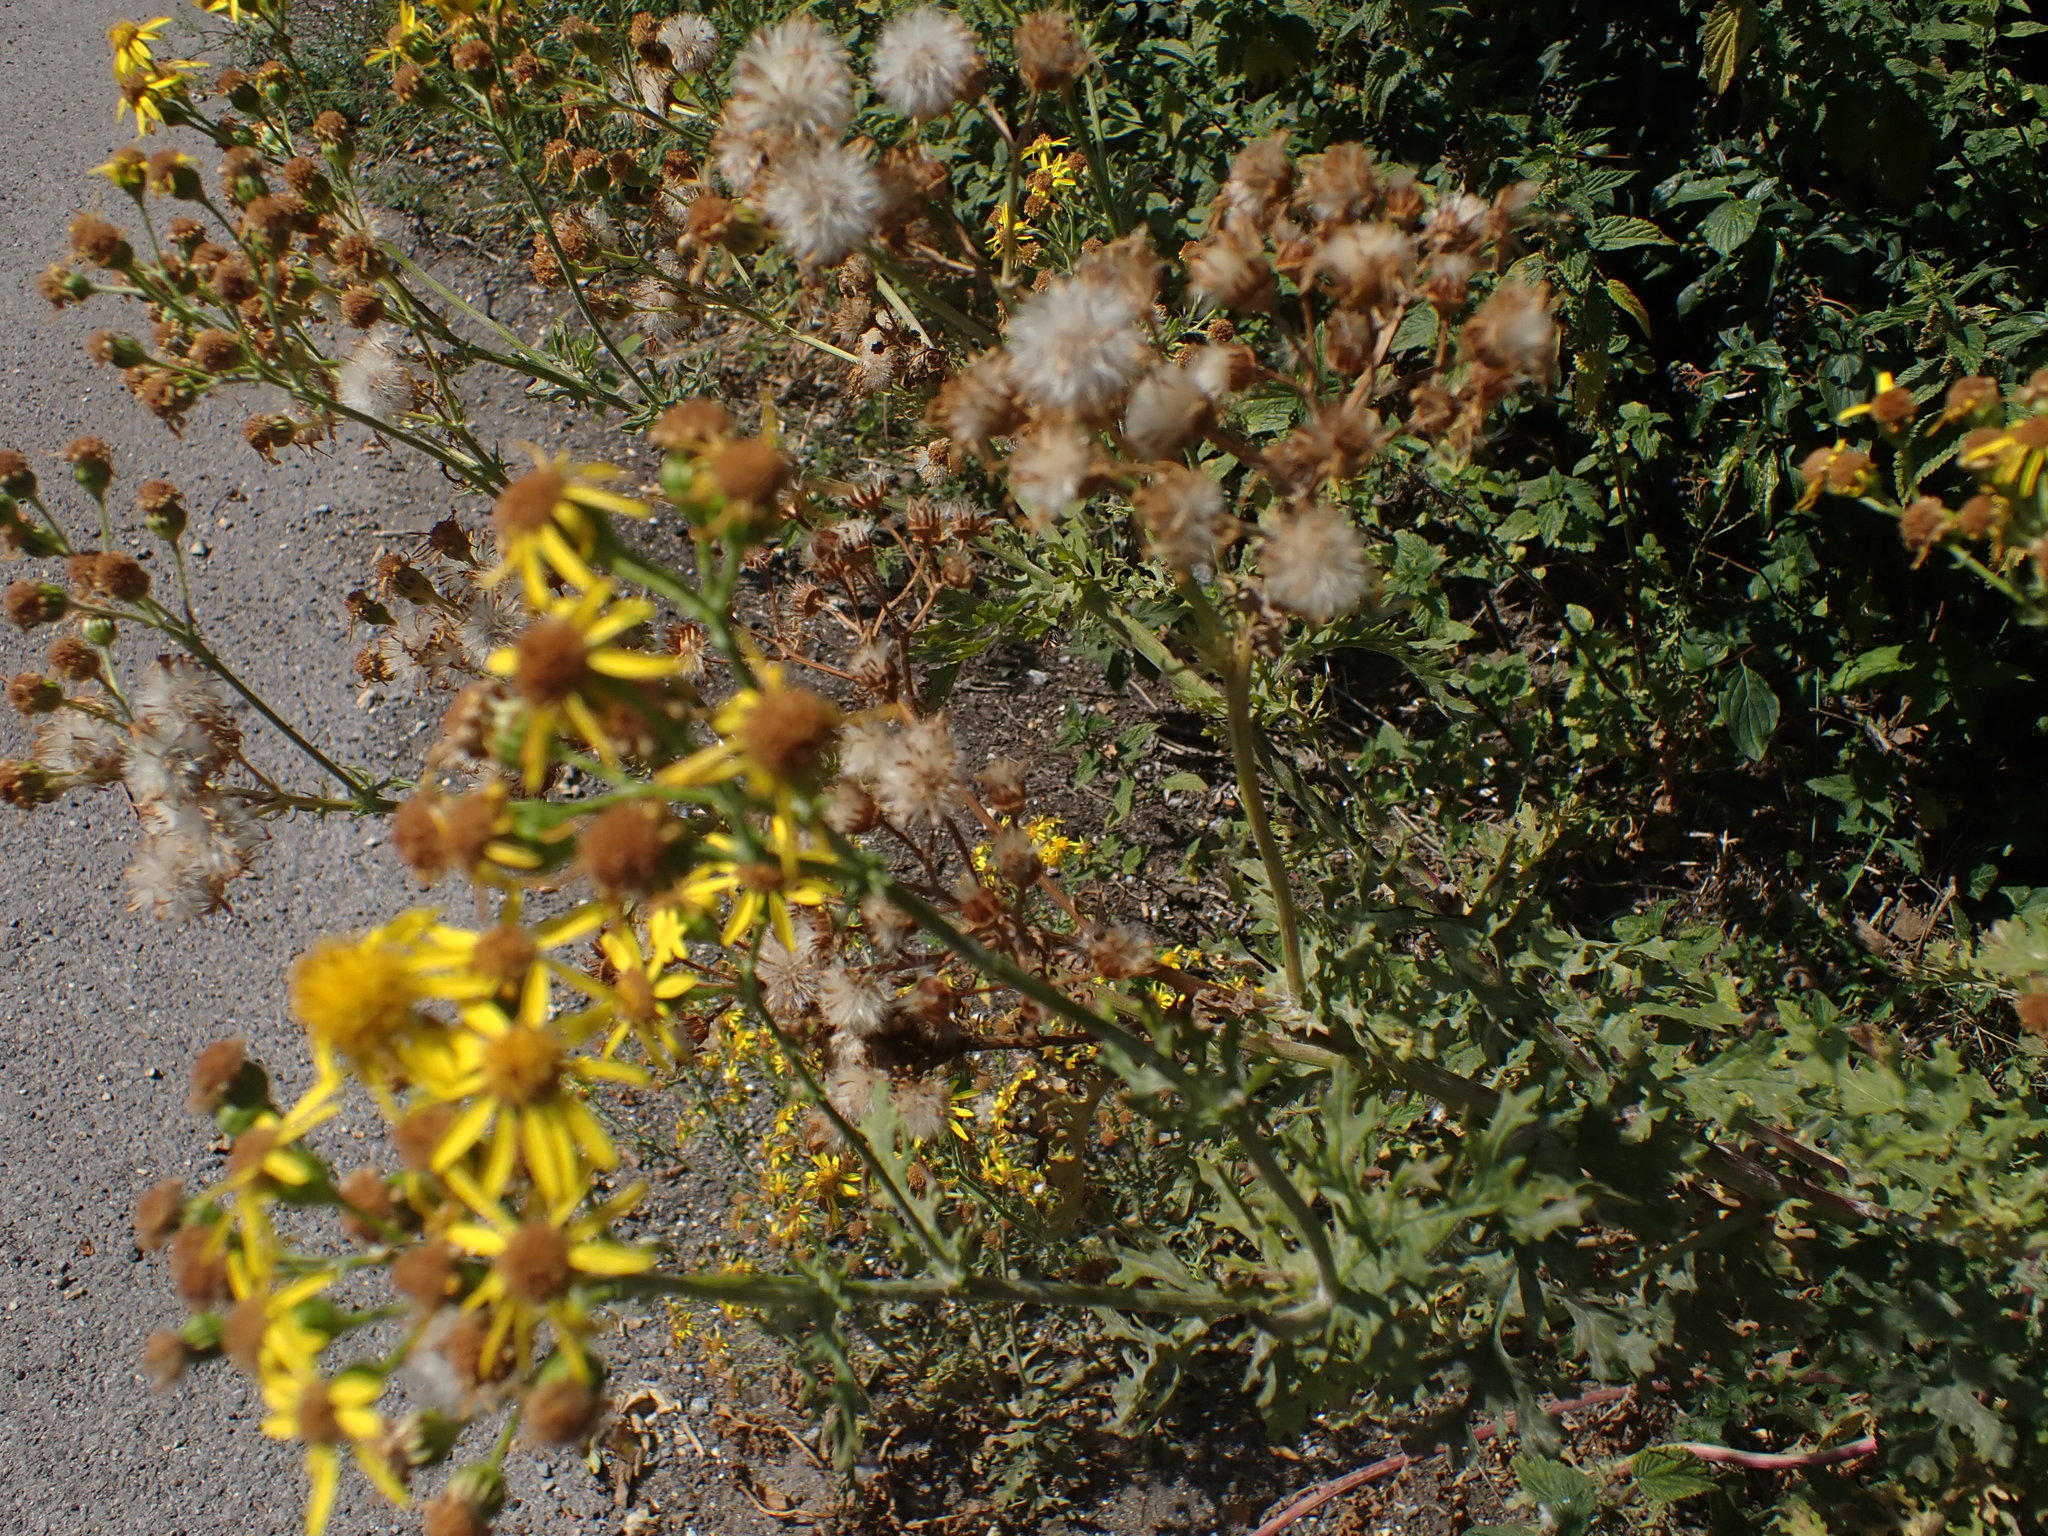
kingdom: Plantae
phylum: Tracheophyta
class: Magnoliopsida
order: Asterales
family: Asteraceae
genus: Jacobaea
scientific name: Jacobaea vulgaris
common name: Stinking willie
